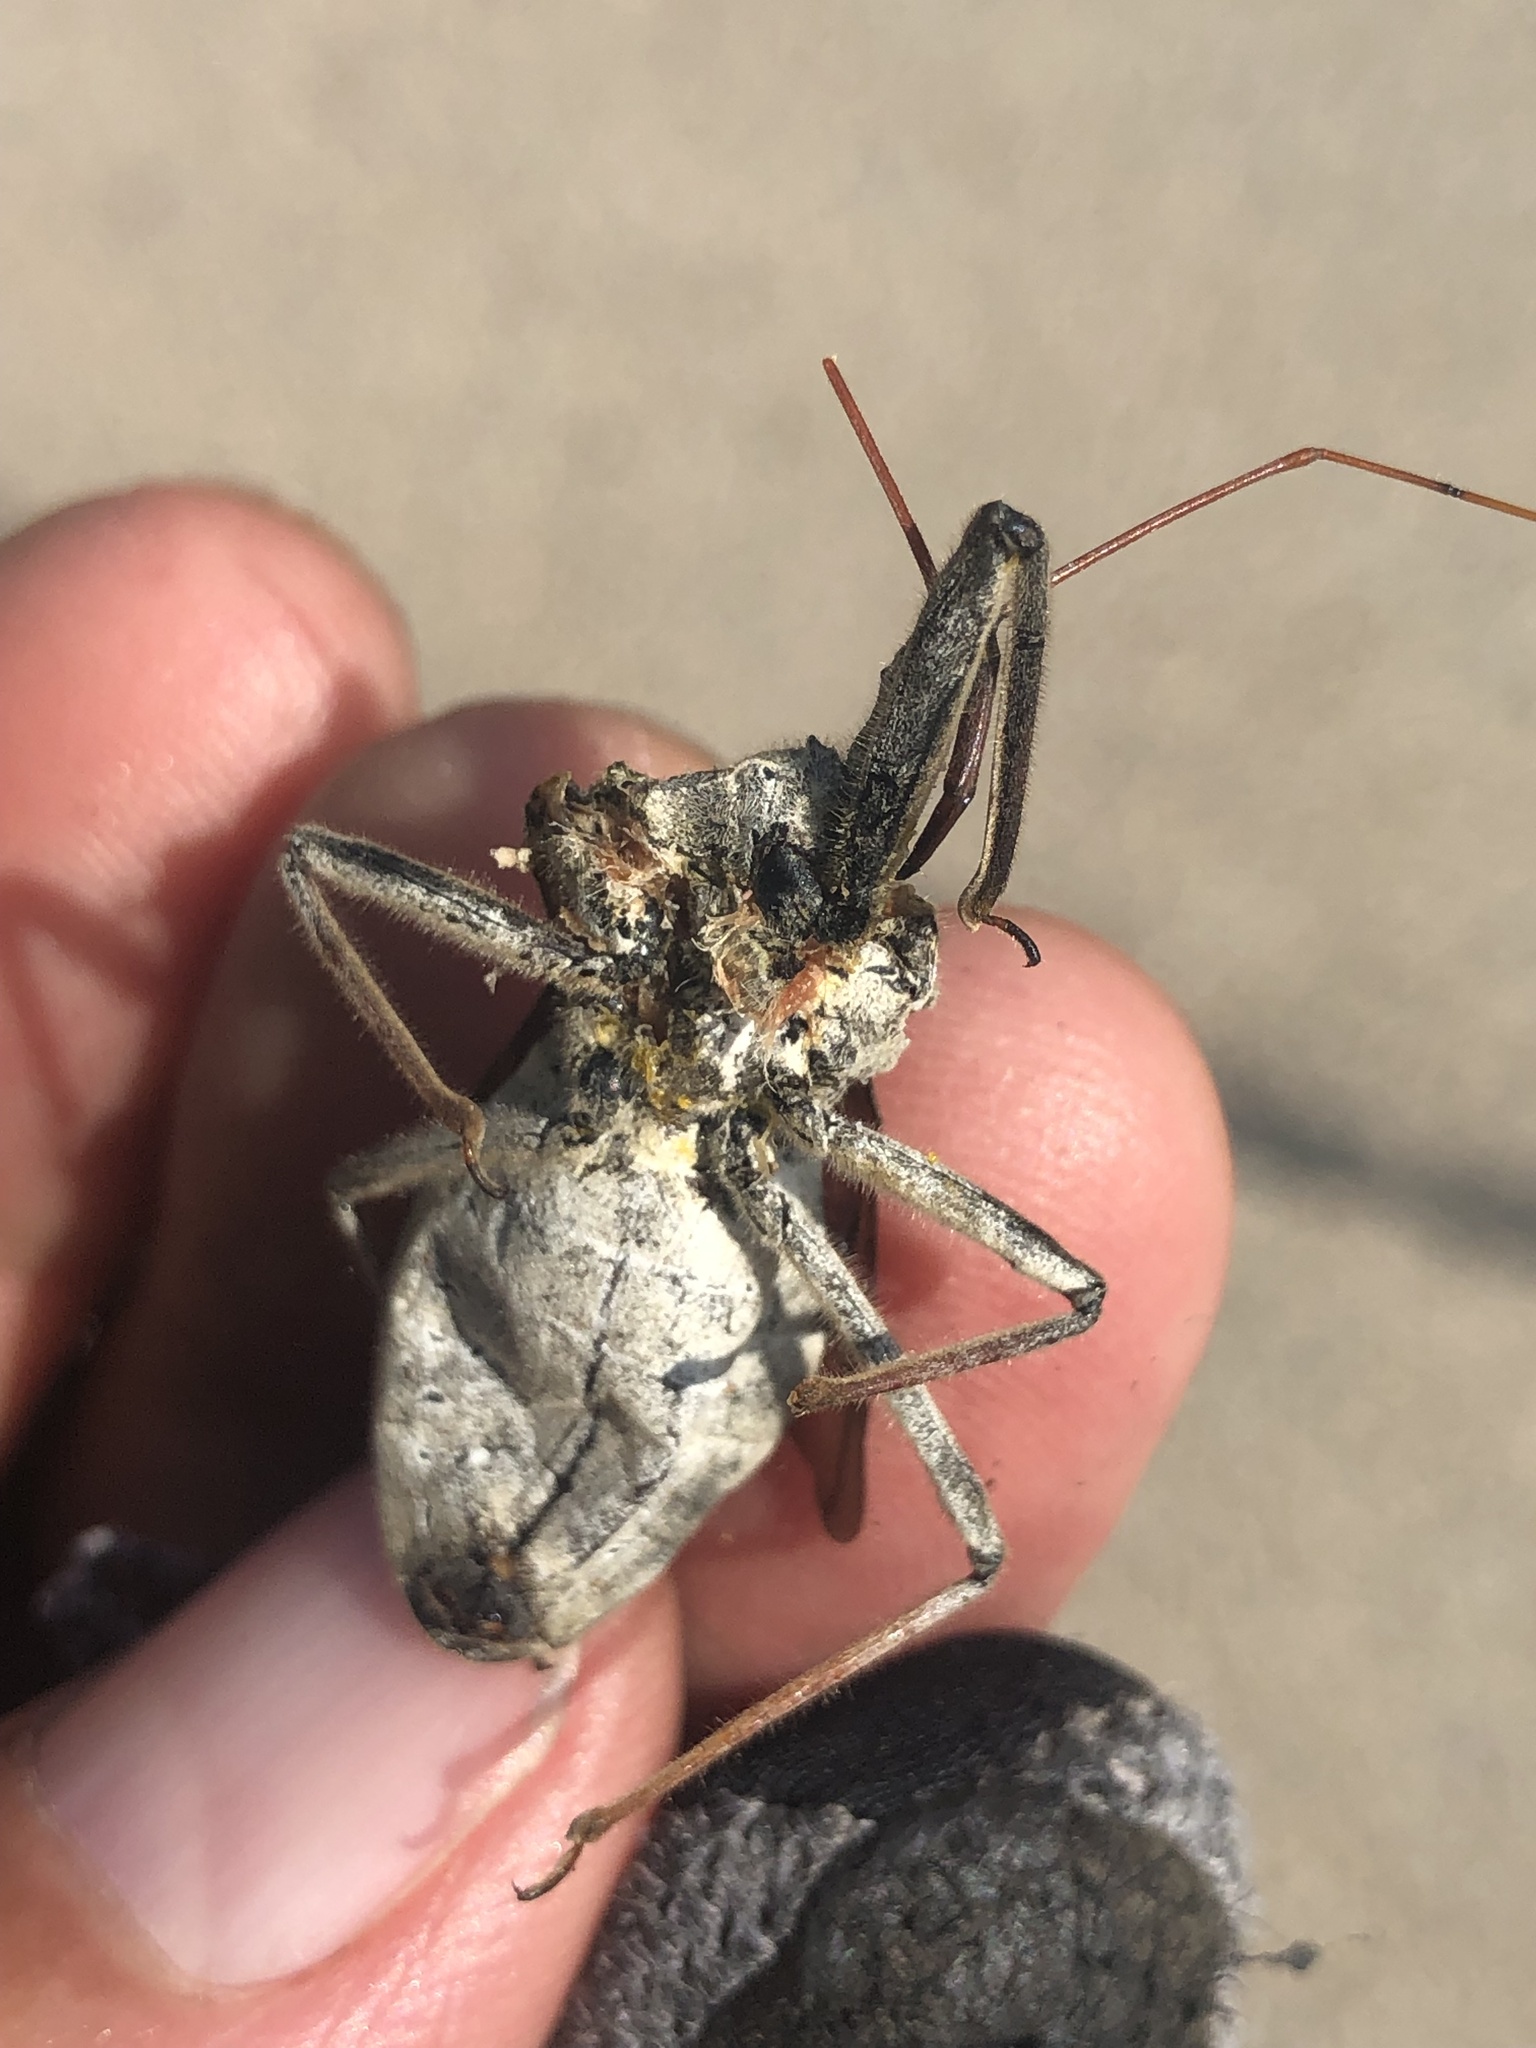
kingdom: Animalia
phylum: Arthropoda
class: Insecta
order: Hemiptera
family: Reduviidae
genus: Arilus
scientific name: Arilus cristatus
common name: North american wheel bug
